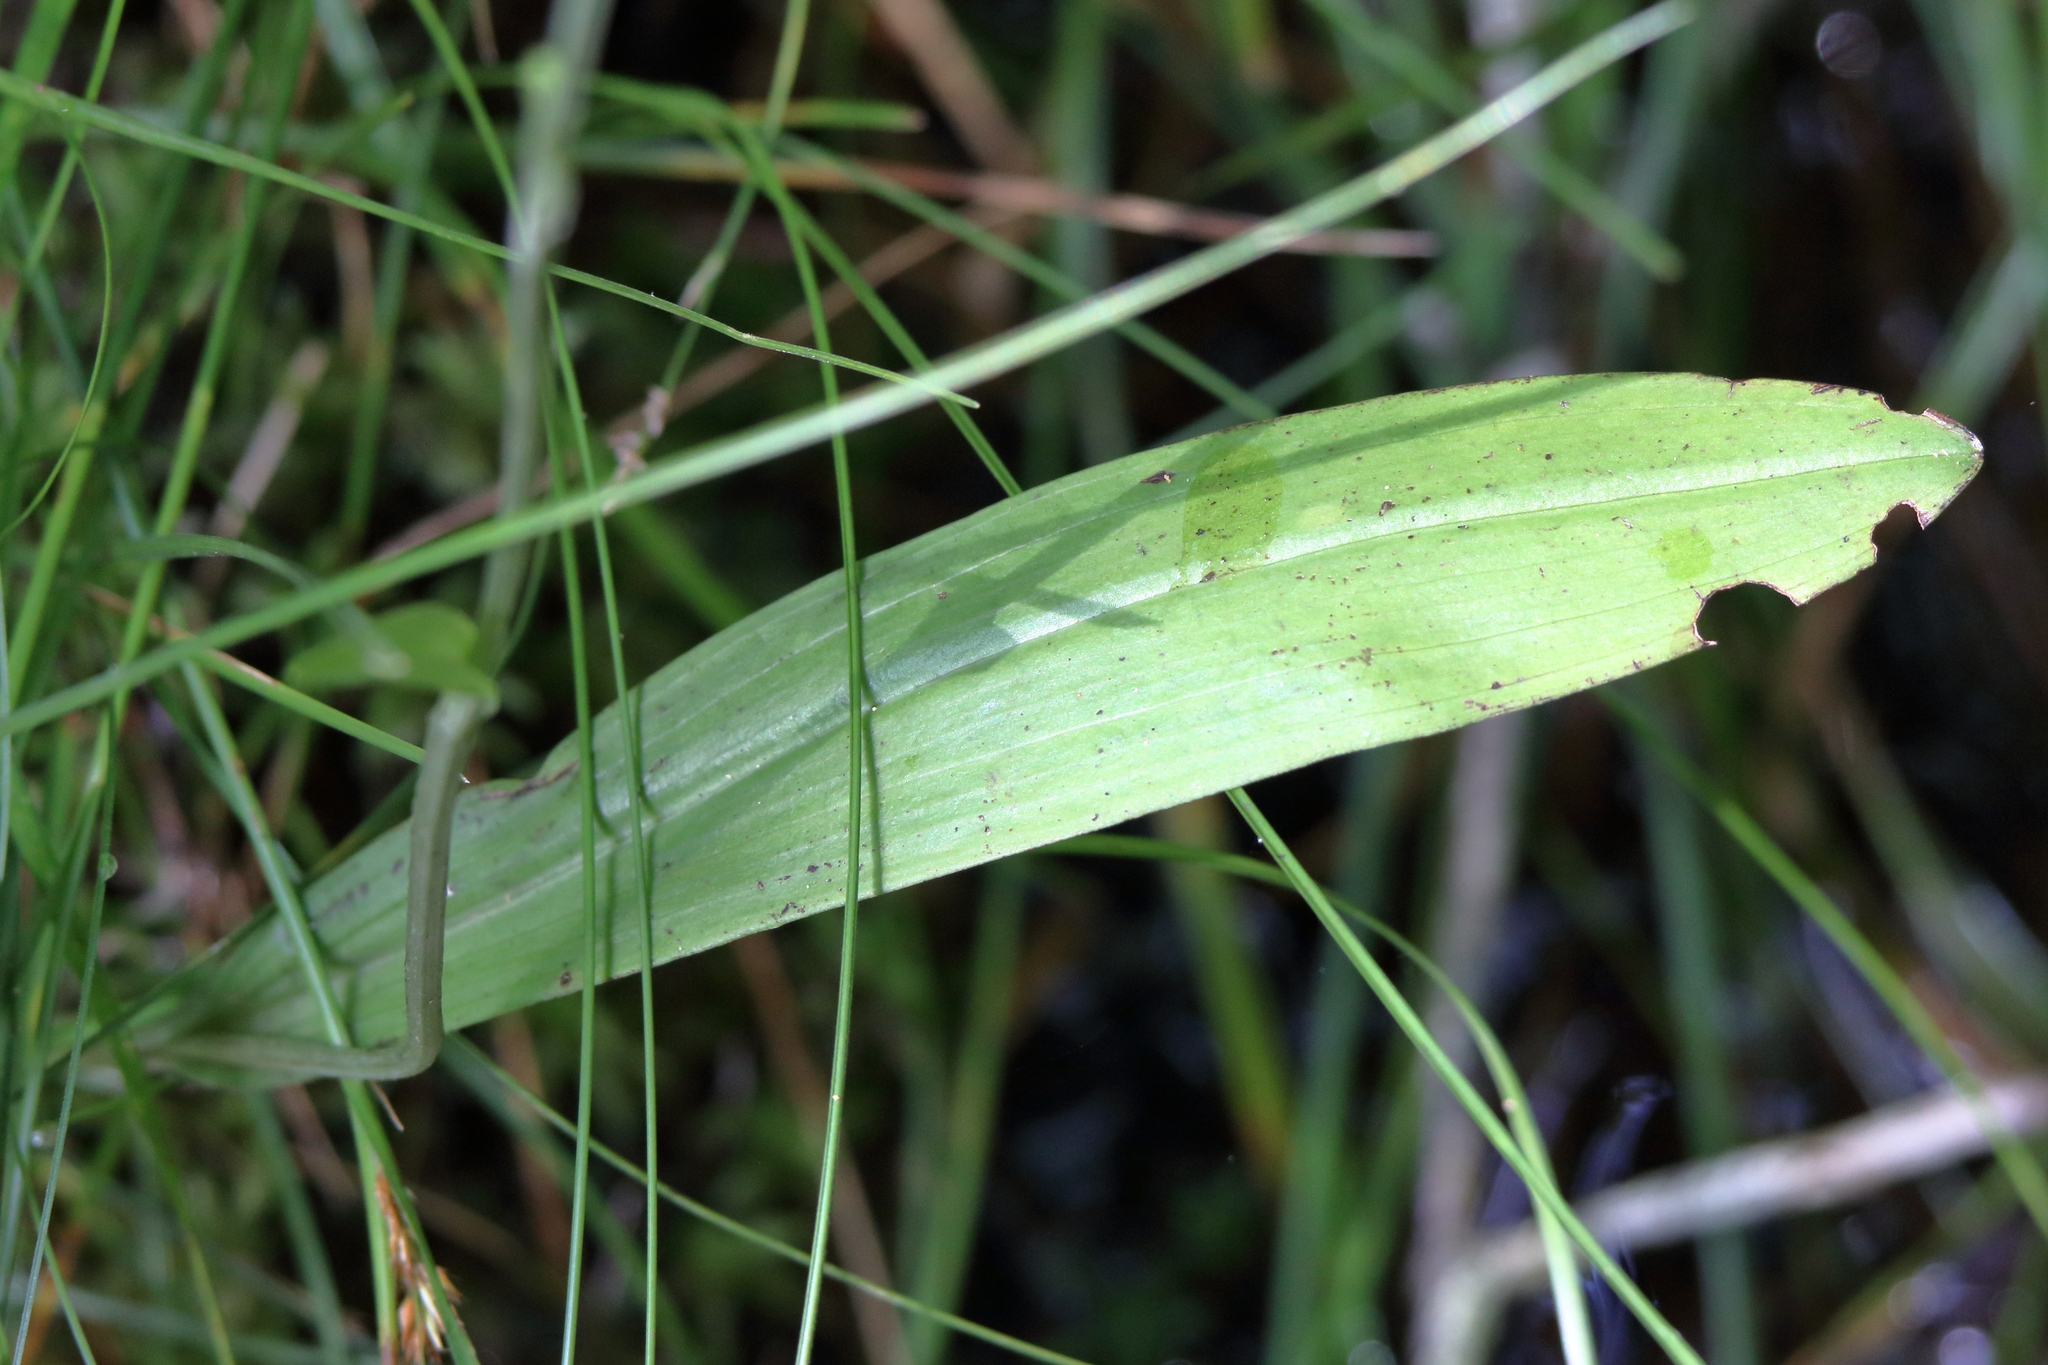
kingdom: Plantae
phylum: Tracheophyta
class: Liliopsida
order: Asparagales
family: Orchidaceae
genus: Platanthera
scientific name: Platanthera clavellata
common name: Club-spur orchid
